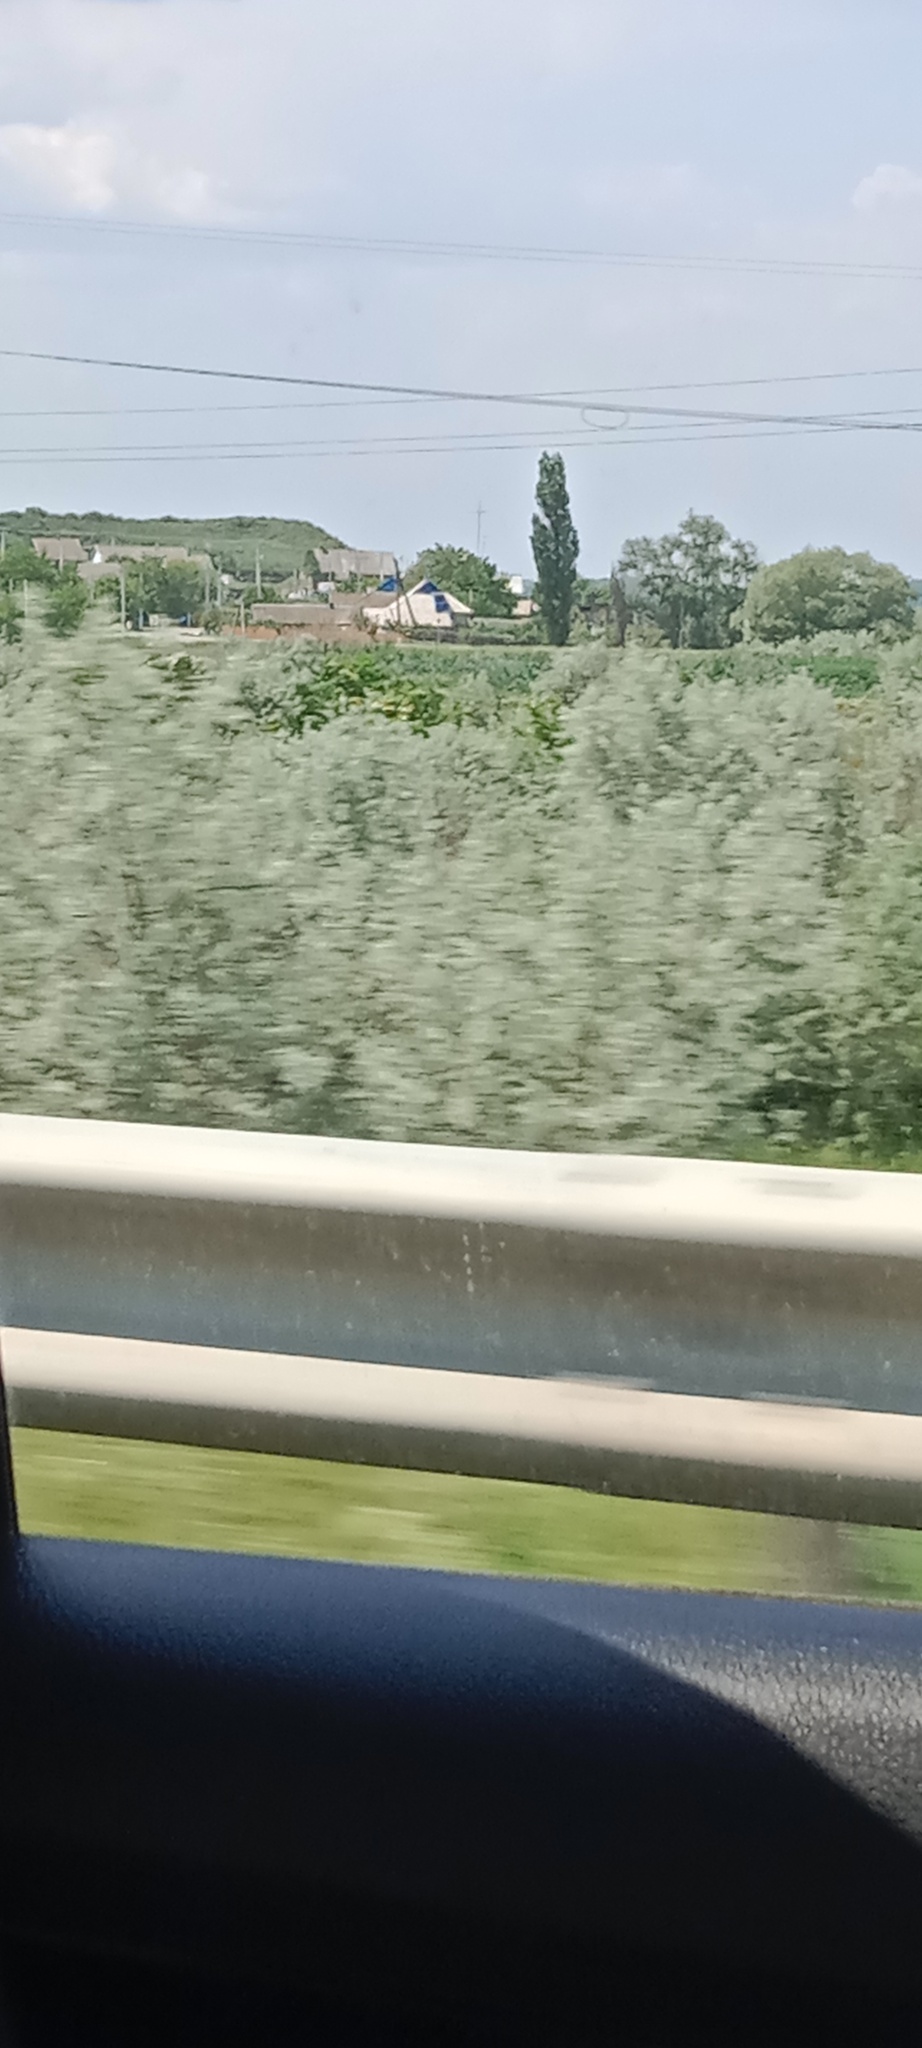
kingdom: Plantae
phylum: Tracheophyta
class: Magnoliopsida
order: Rosales
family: Elaeagnaceae
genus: Elaeagnus
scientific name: Elaeagnus angustifolia
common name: Russian olive
